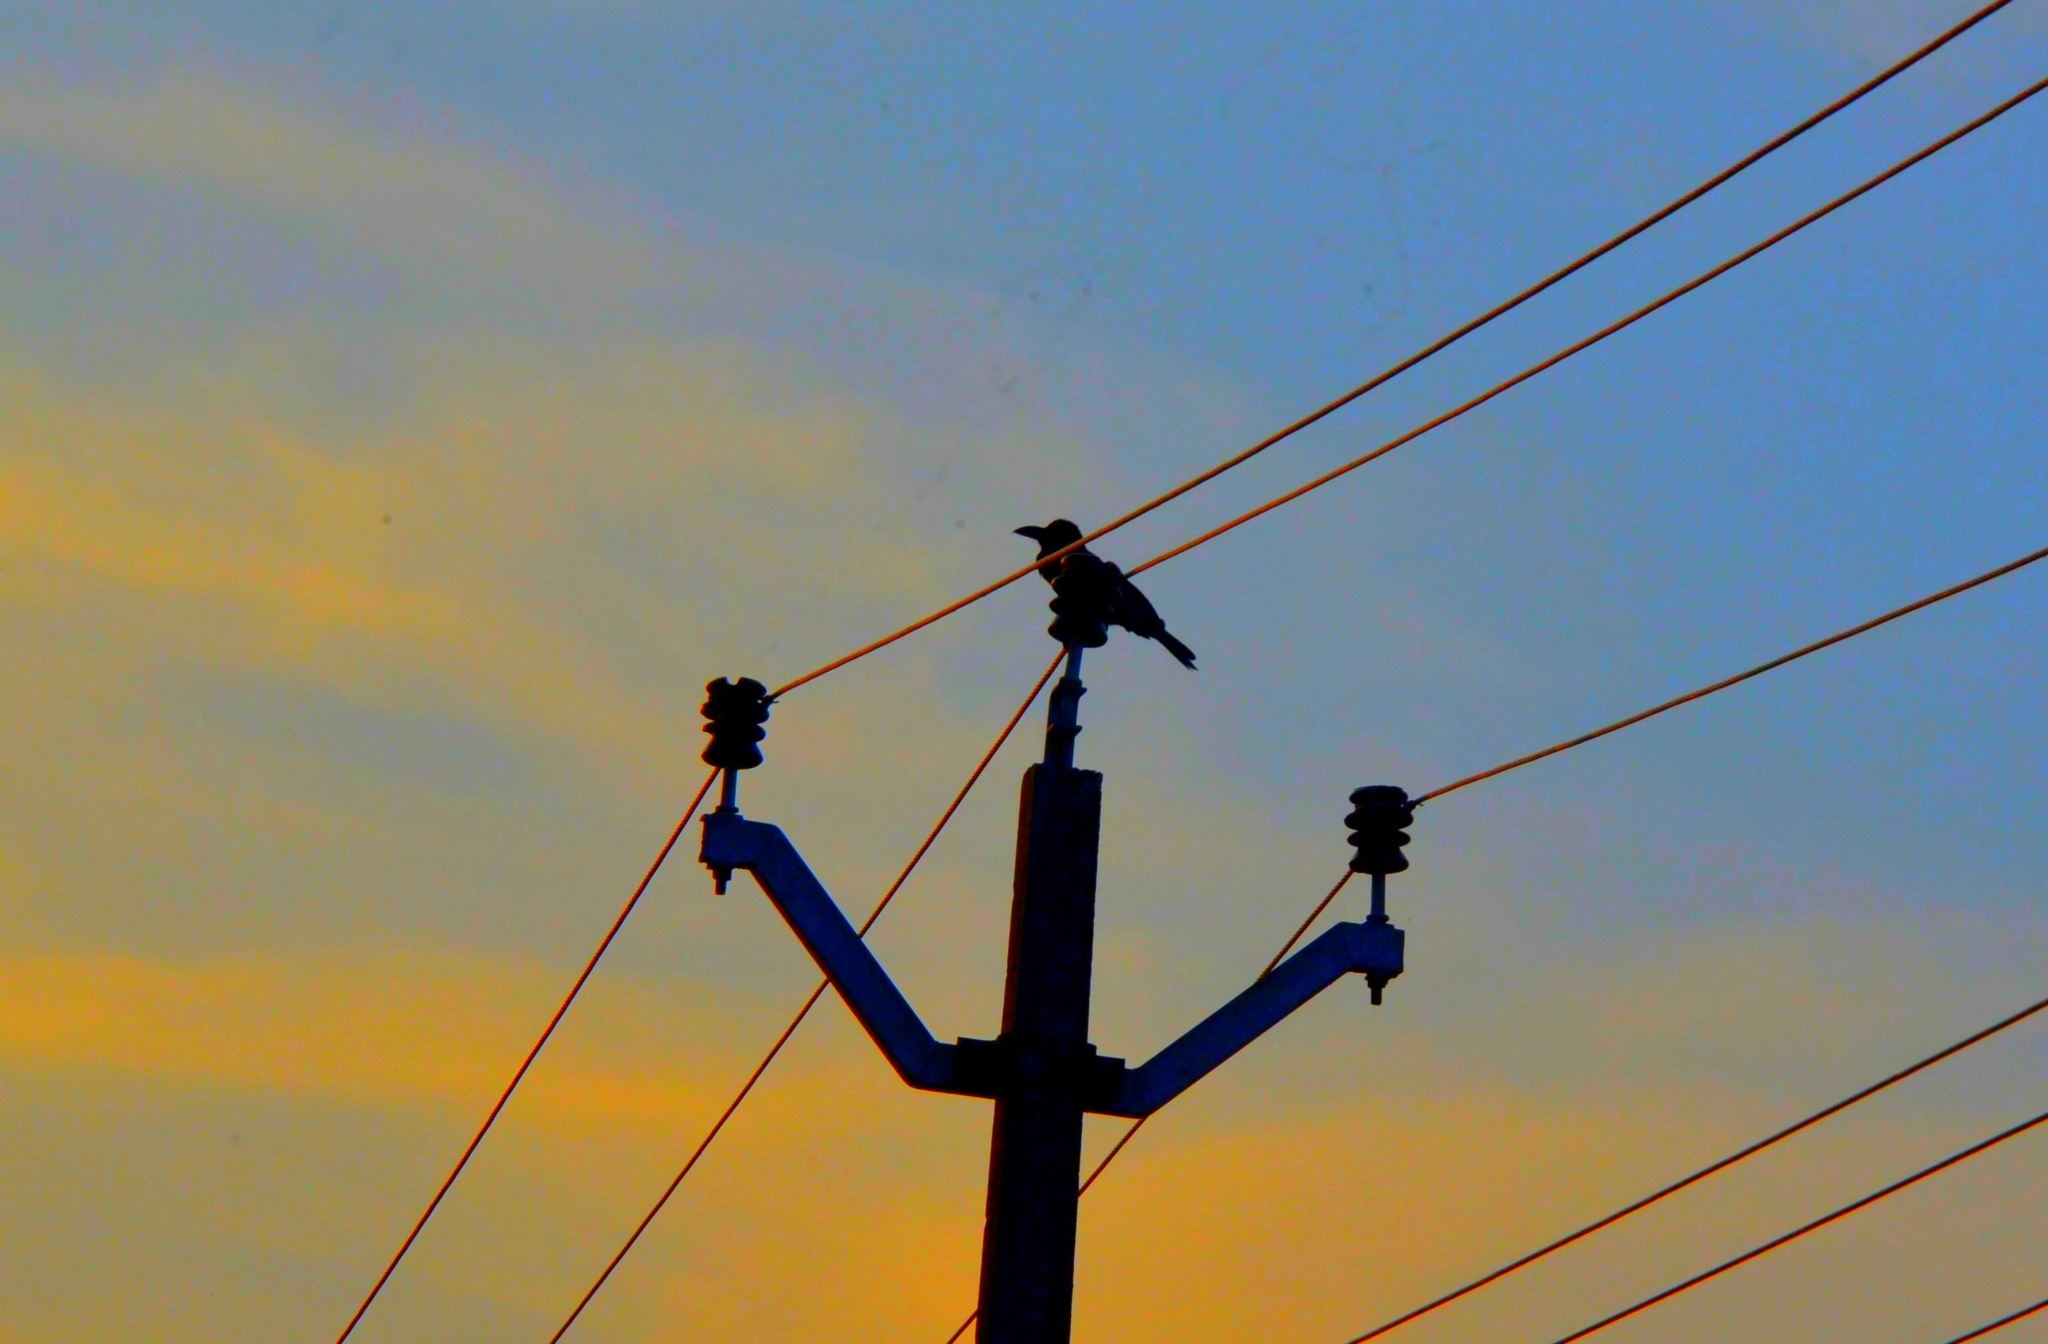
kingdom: Animalia
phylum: Chordata
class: Aves
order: Passeriformes
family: Corvidae
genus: Corvus
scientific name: Corvus macrorhynchos
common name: Large-billed crow
